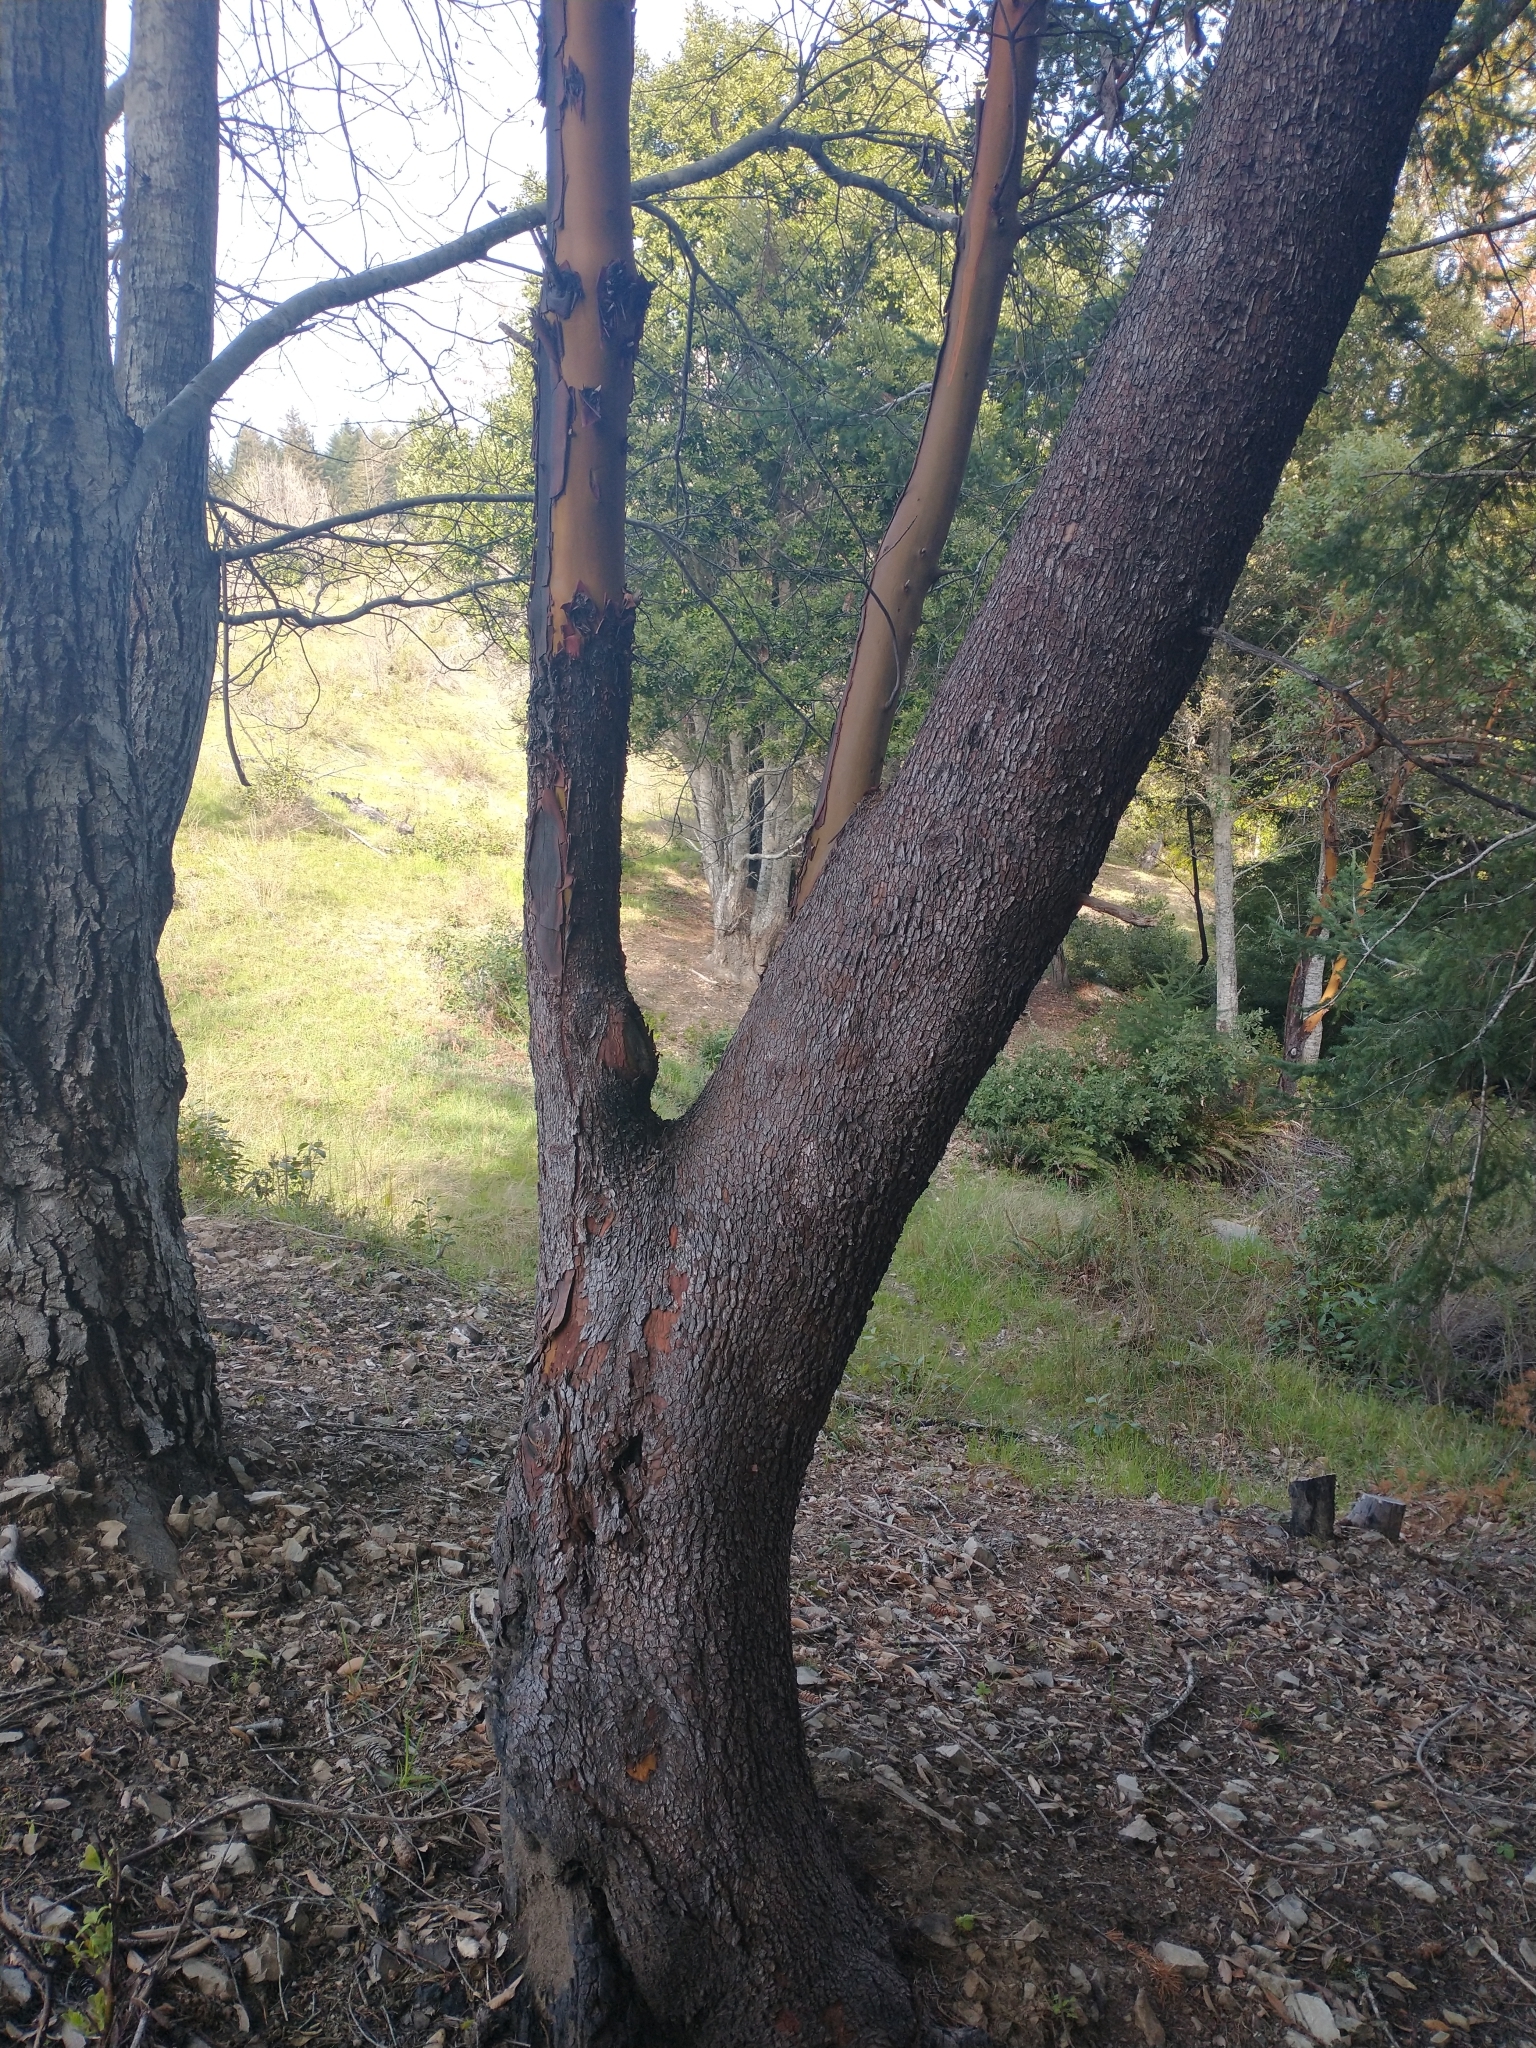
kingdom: Plantae
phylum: Tracheophyta
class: Magnoliopsida
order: Ericales
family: Ericaceae
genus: Arbutus
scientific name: Arbutus menziesii
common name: Pacific madrone
